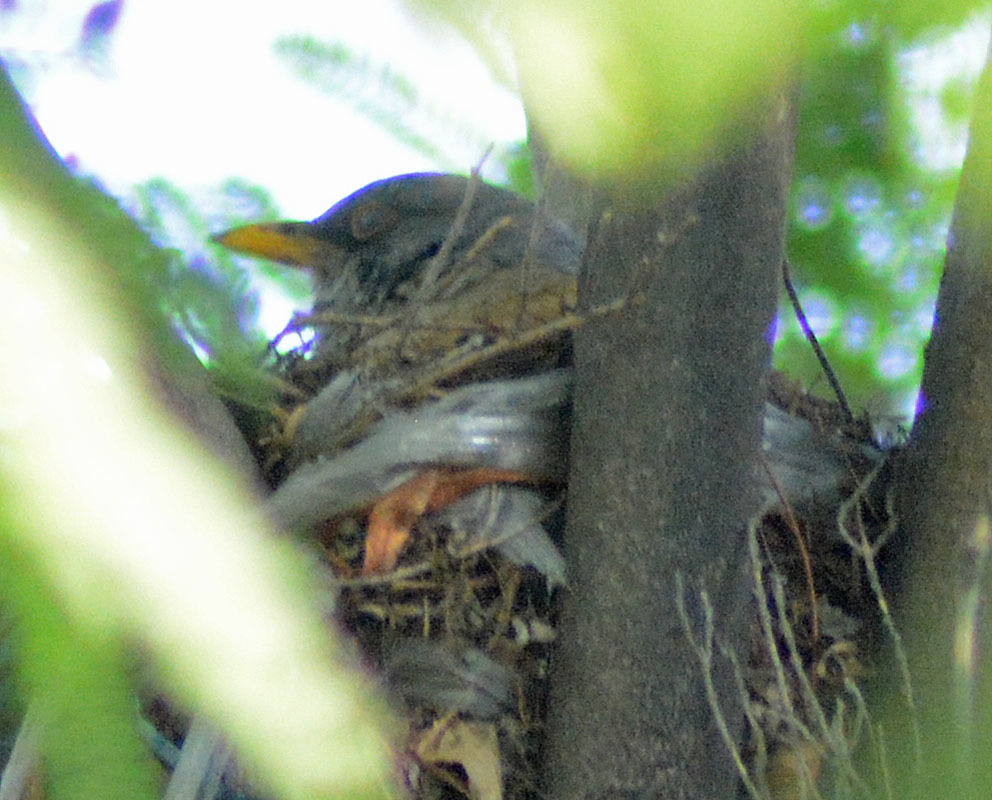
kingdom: Animalia
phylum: Chordata
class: Aves
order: Passeriformes
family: Turdidae
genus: Turdus
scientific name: Turdus rufopalliatus
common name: Rufous-backed robin
